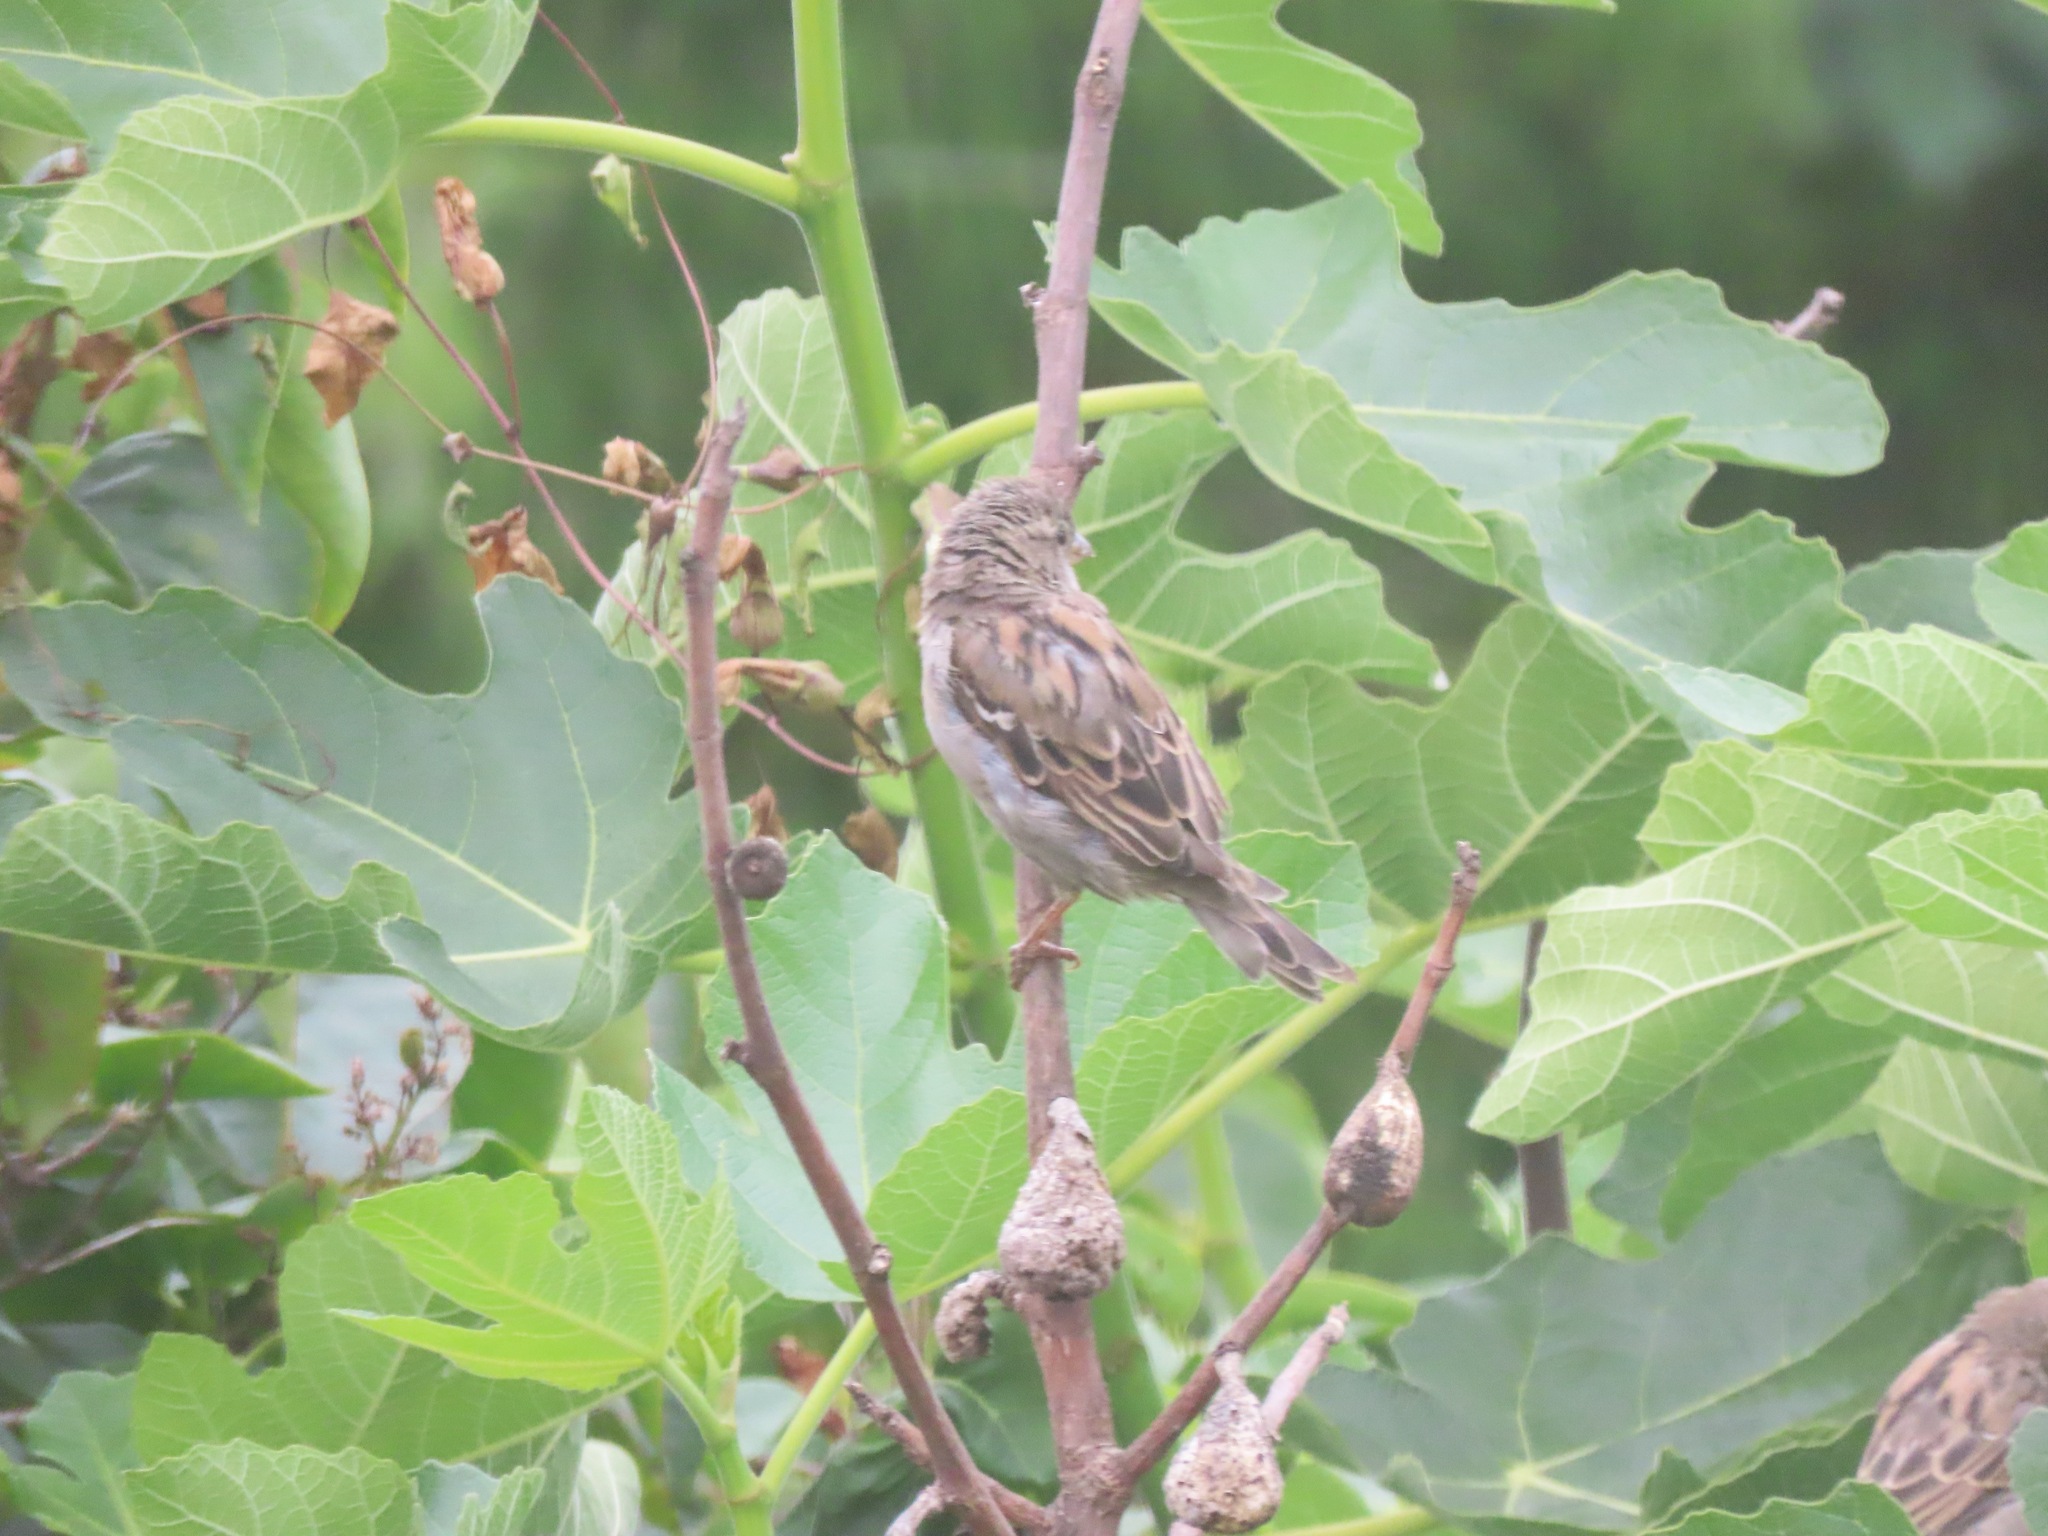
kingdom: Animalia
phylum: Chordata
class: Aves
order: Passeriformes
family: Passeridae
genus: Passer
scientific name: Passer domesticus
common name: House sparrow
